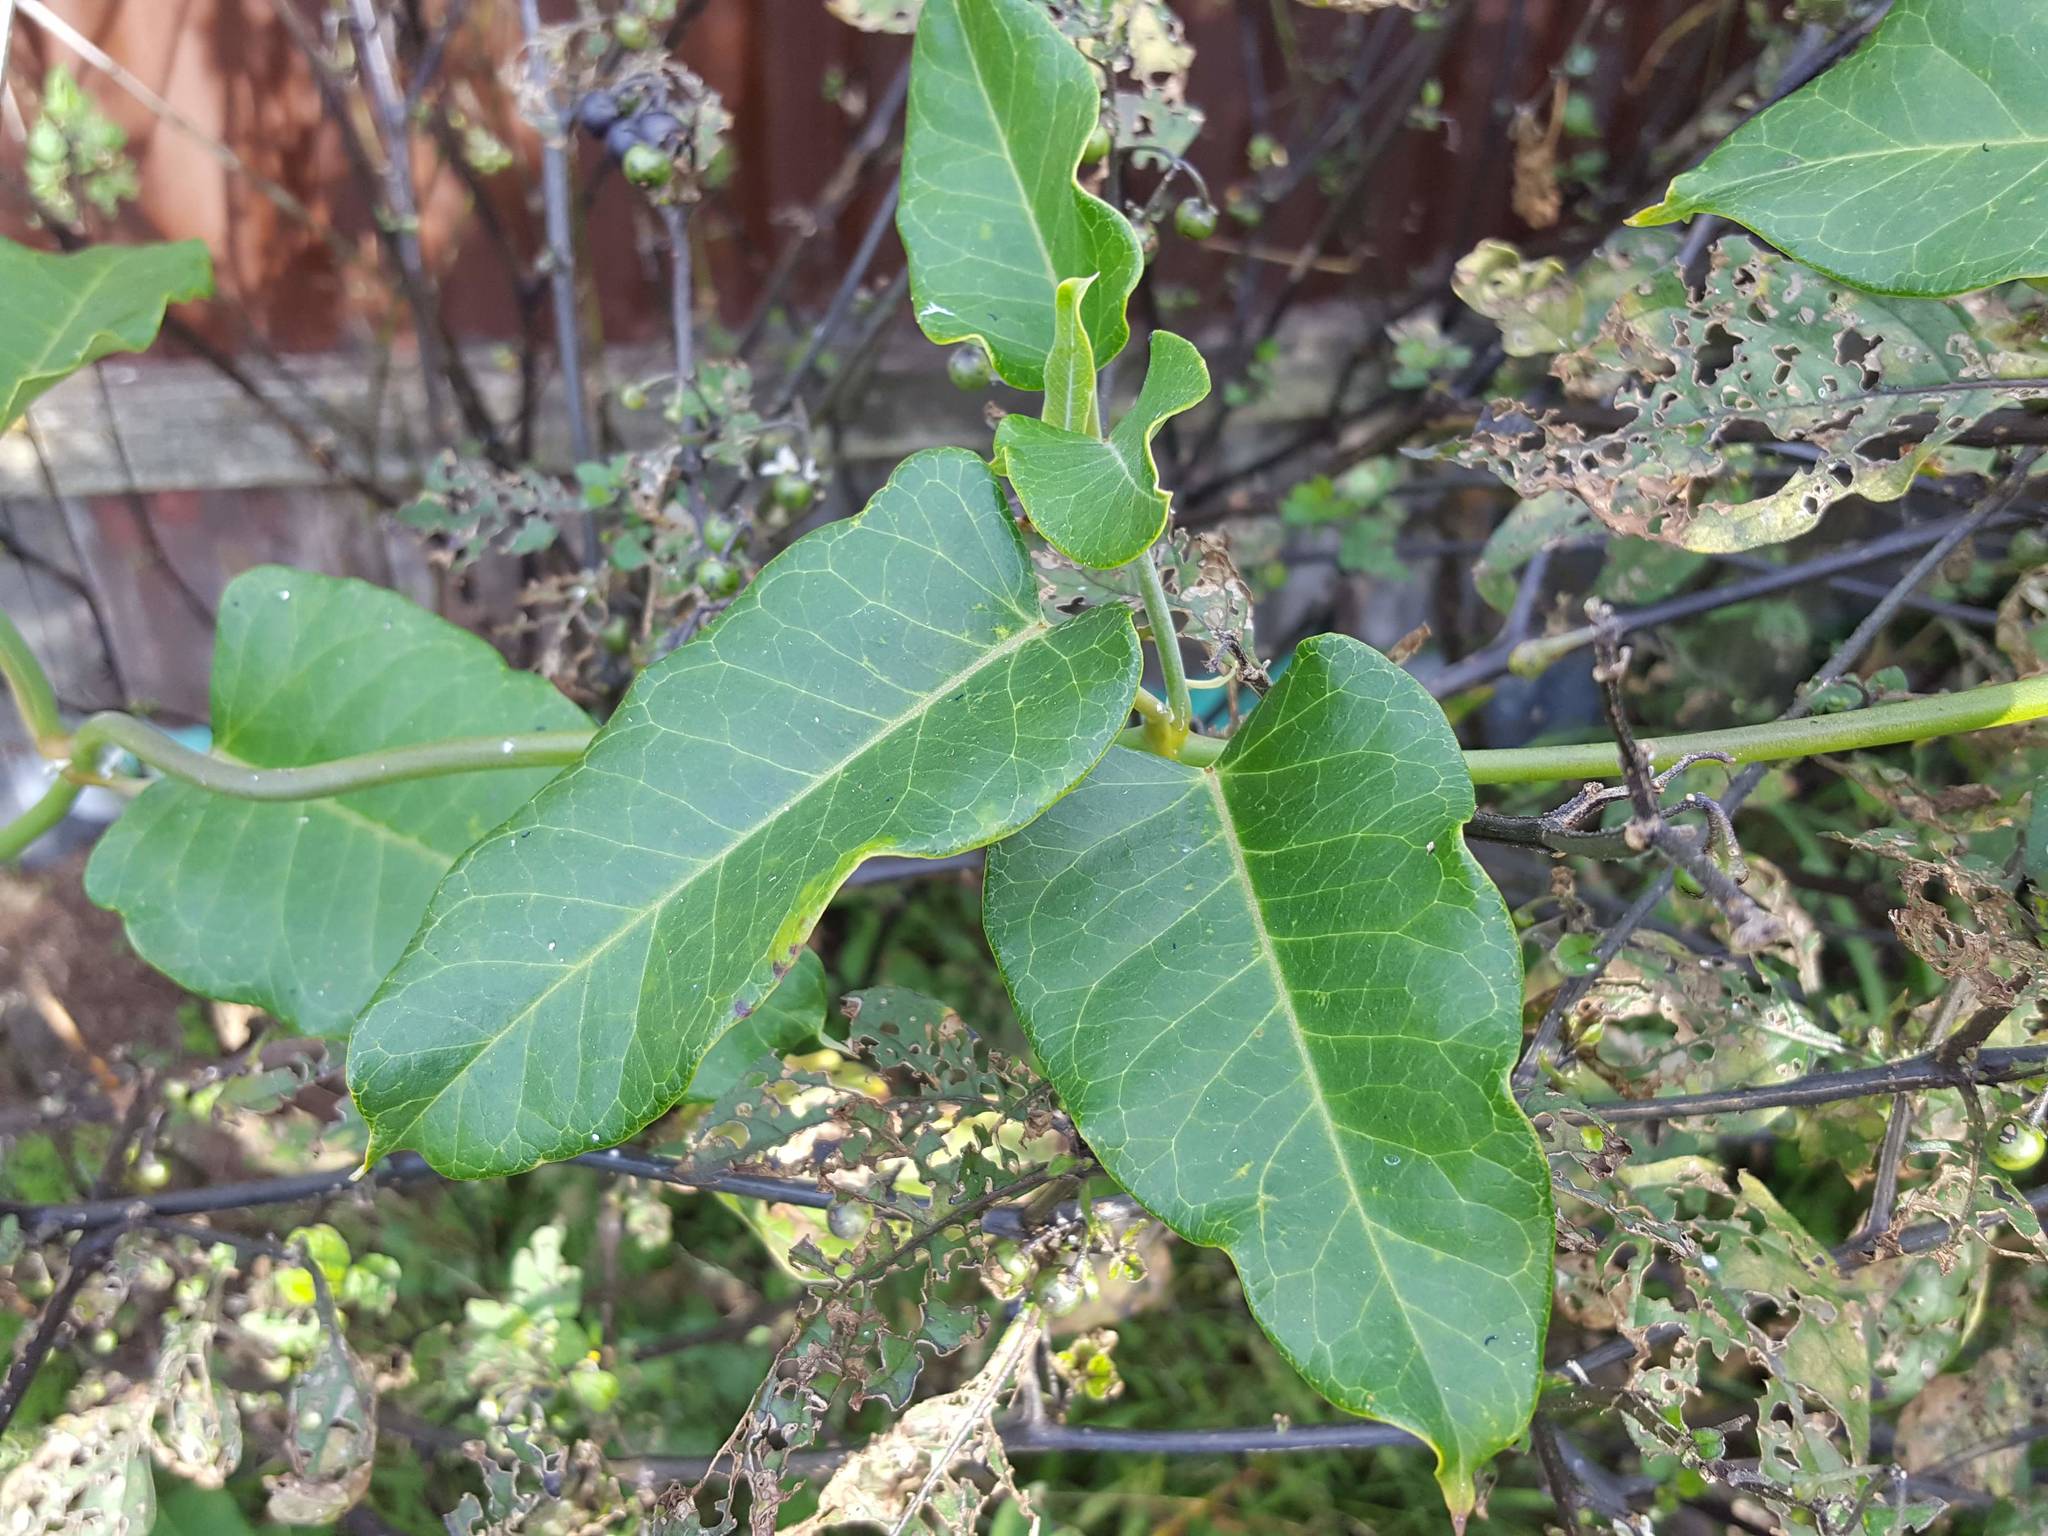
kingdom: Plantae
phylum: Tracheophyta
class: Magnoliopsida
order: Gentianales
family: Apocynaceae
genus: Araujia
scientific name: Araujia sericifera
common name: White bladderflower
